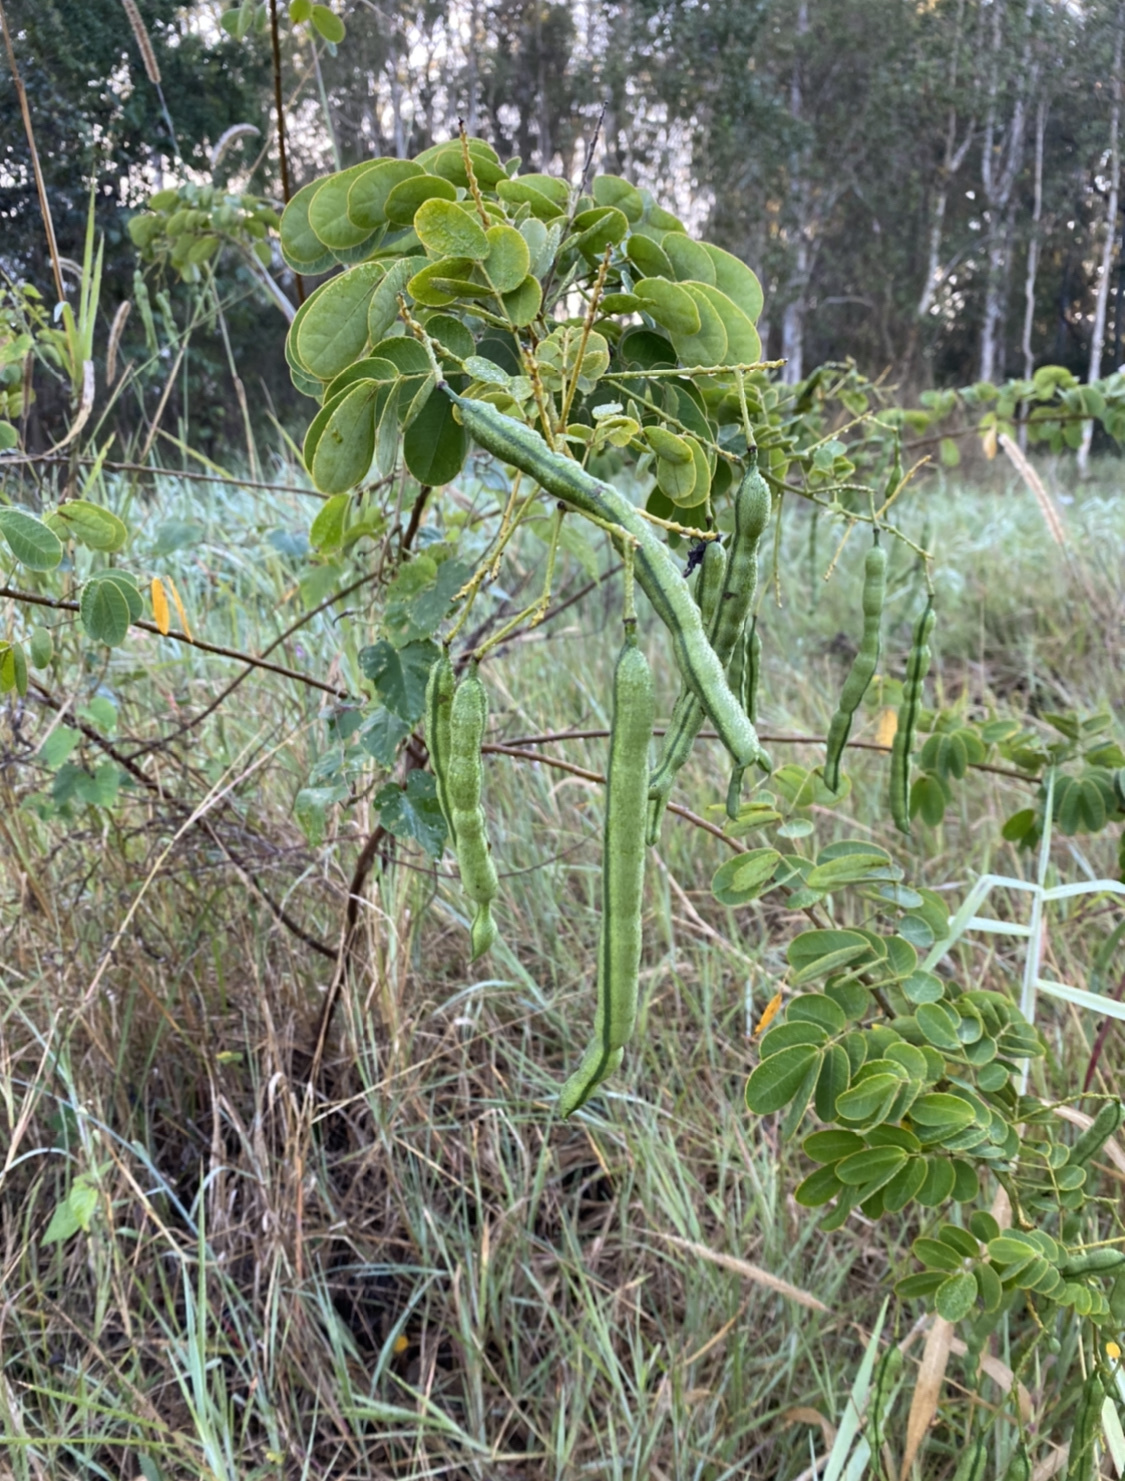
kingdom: Plantae
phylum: Tracheophyta
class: Magnoliopsida
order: Fabales
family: Fabaceae
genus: Senna
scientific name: Senna pendula
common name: Easter cassia
